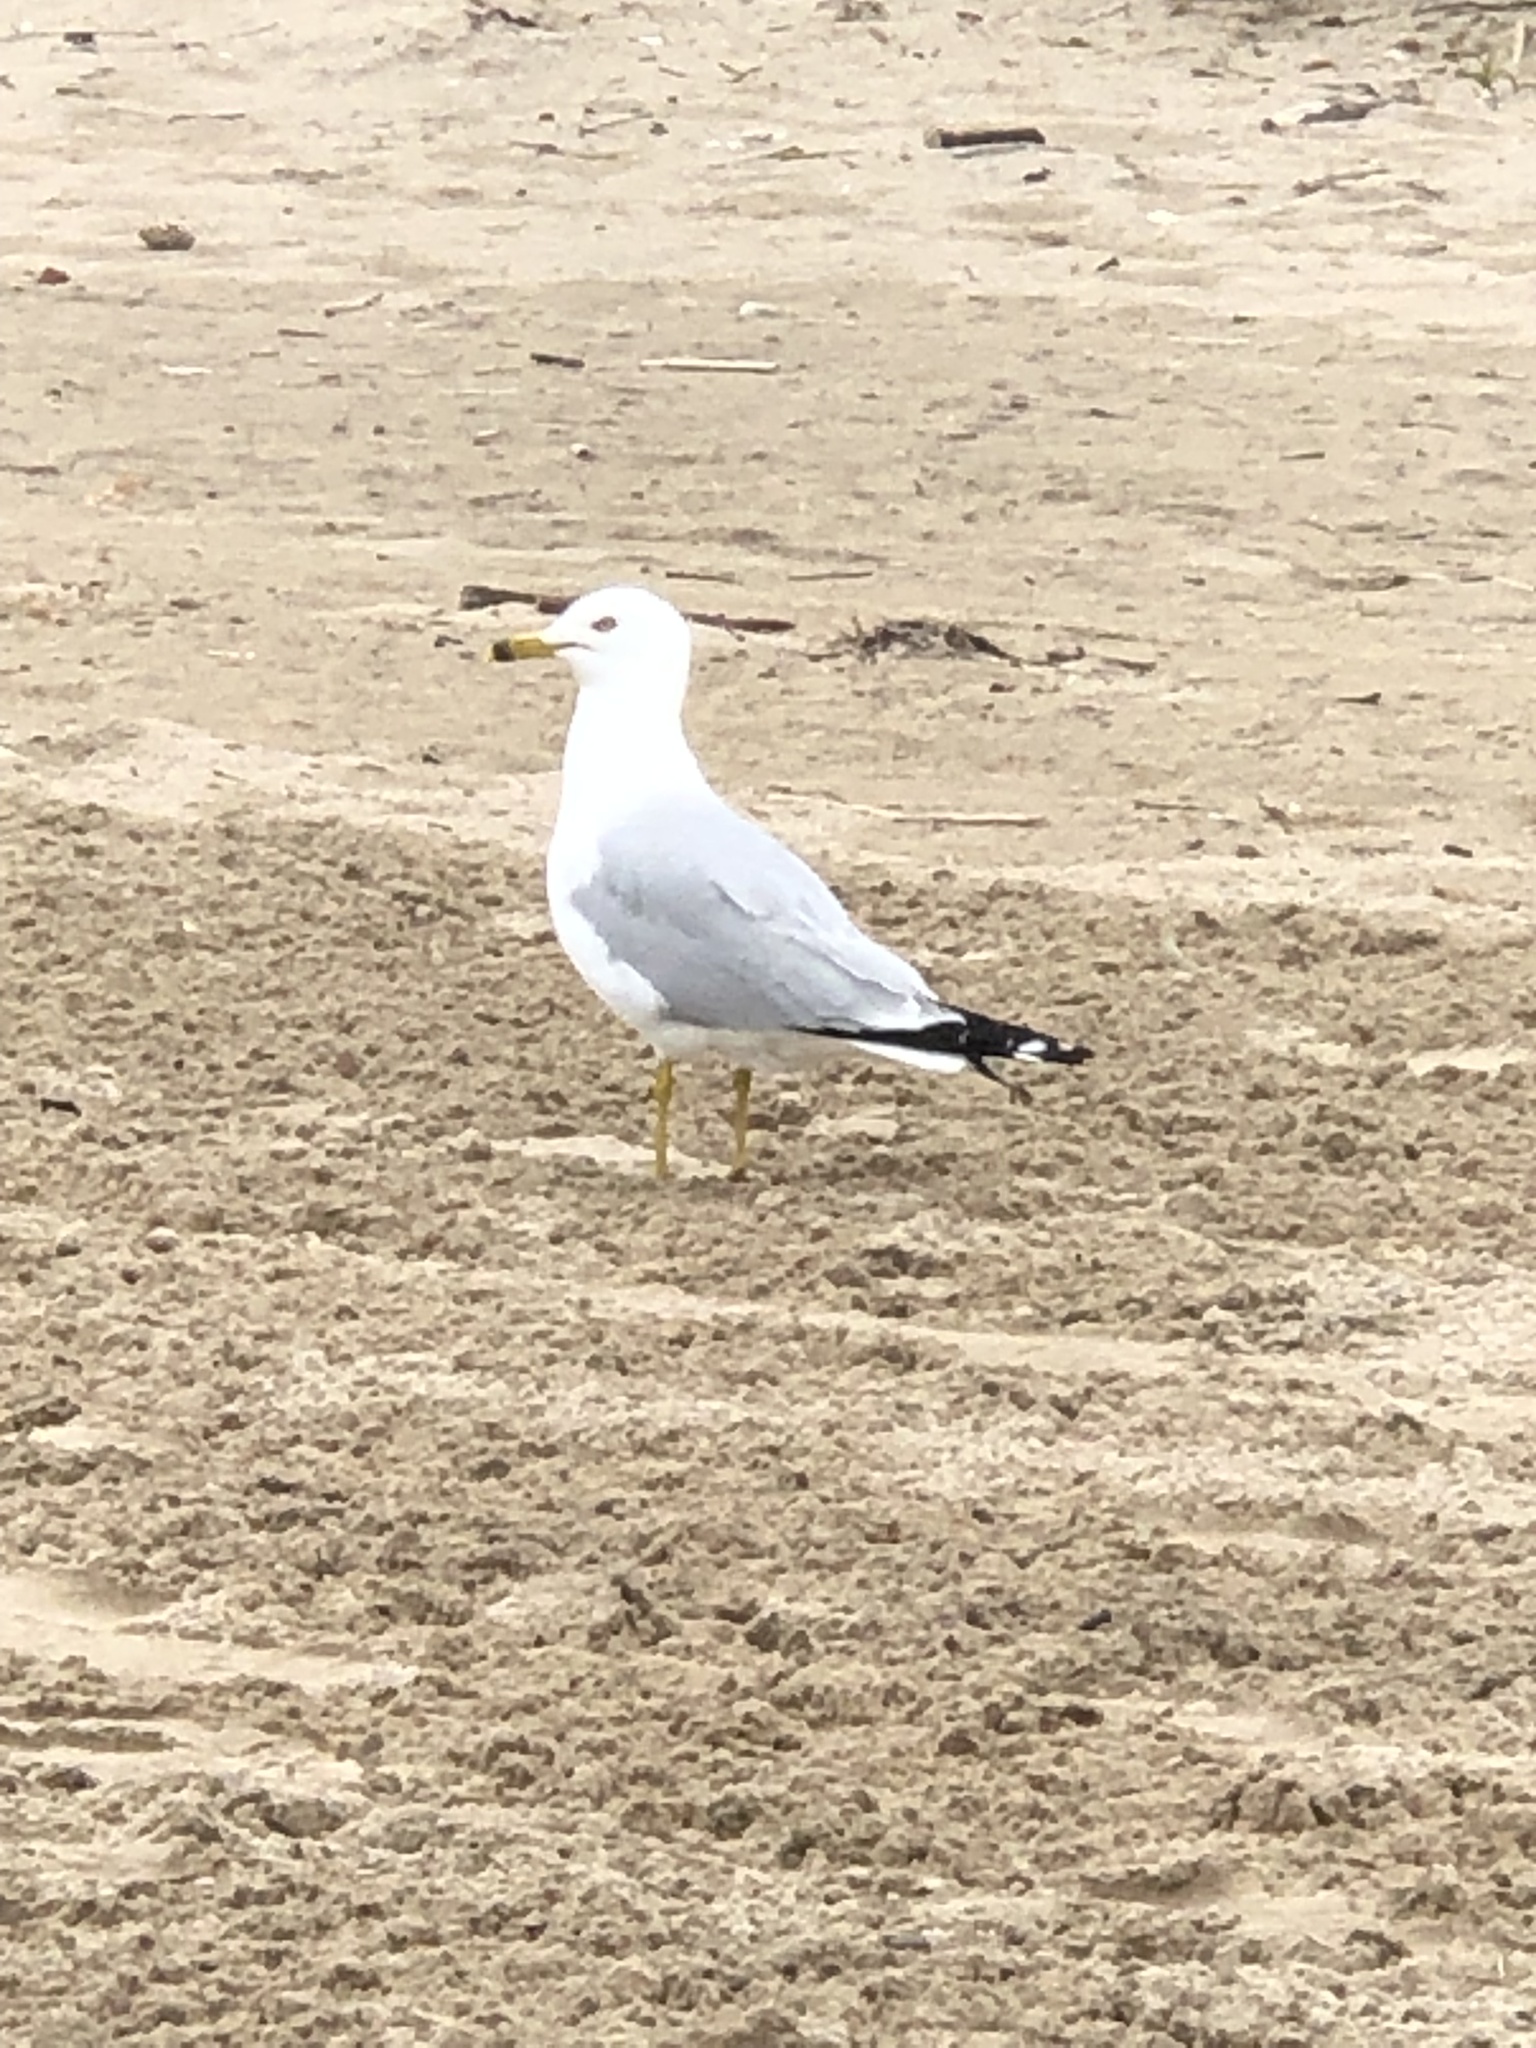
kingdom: Animalia
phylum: Chordata
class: Aves
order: Charadriiformes
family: Laridae
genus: Larus
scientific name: Larus delawarensis
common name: Ring-billed gull
